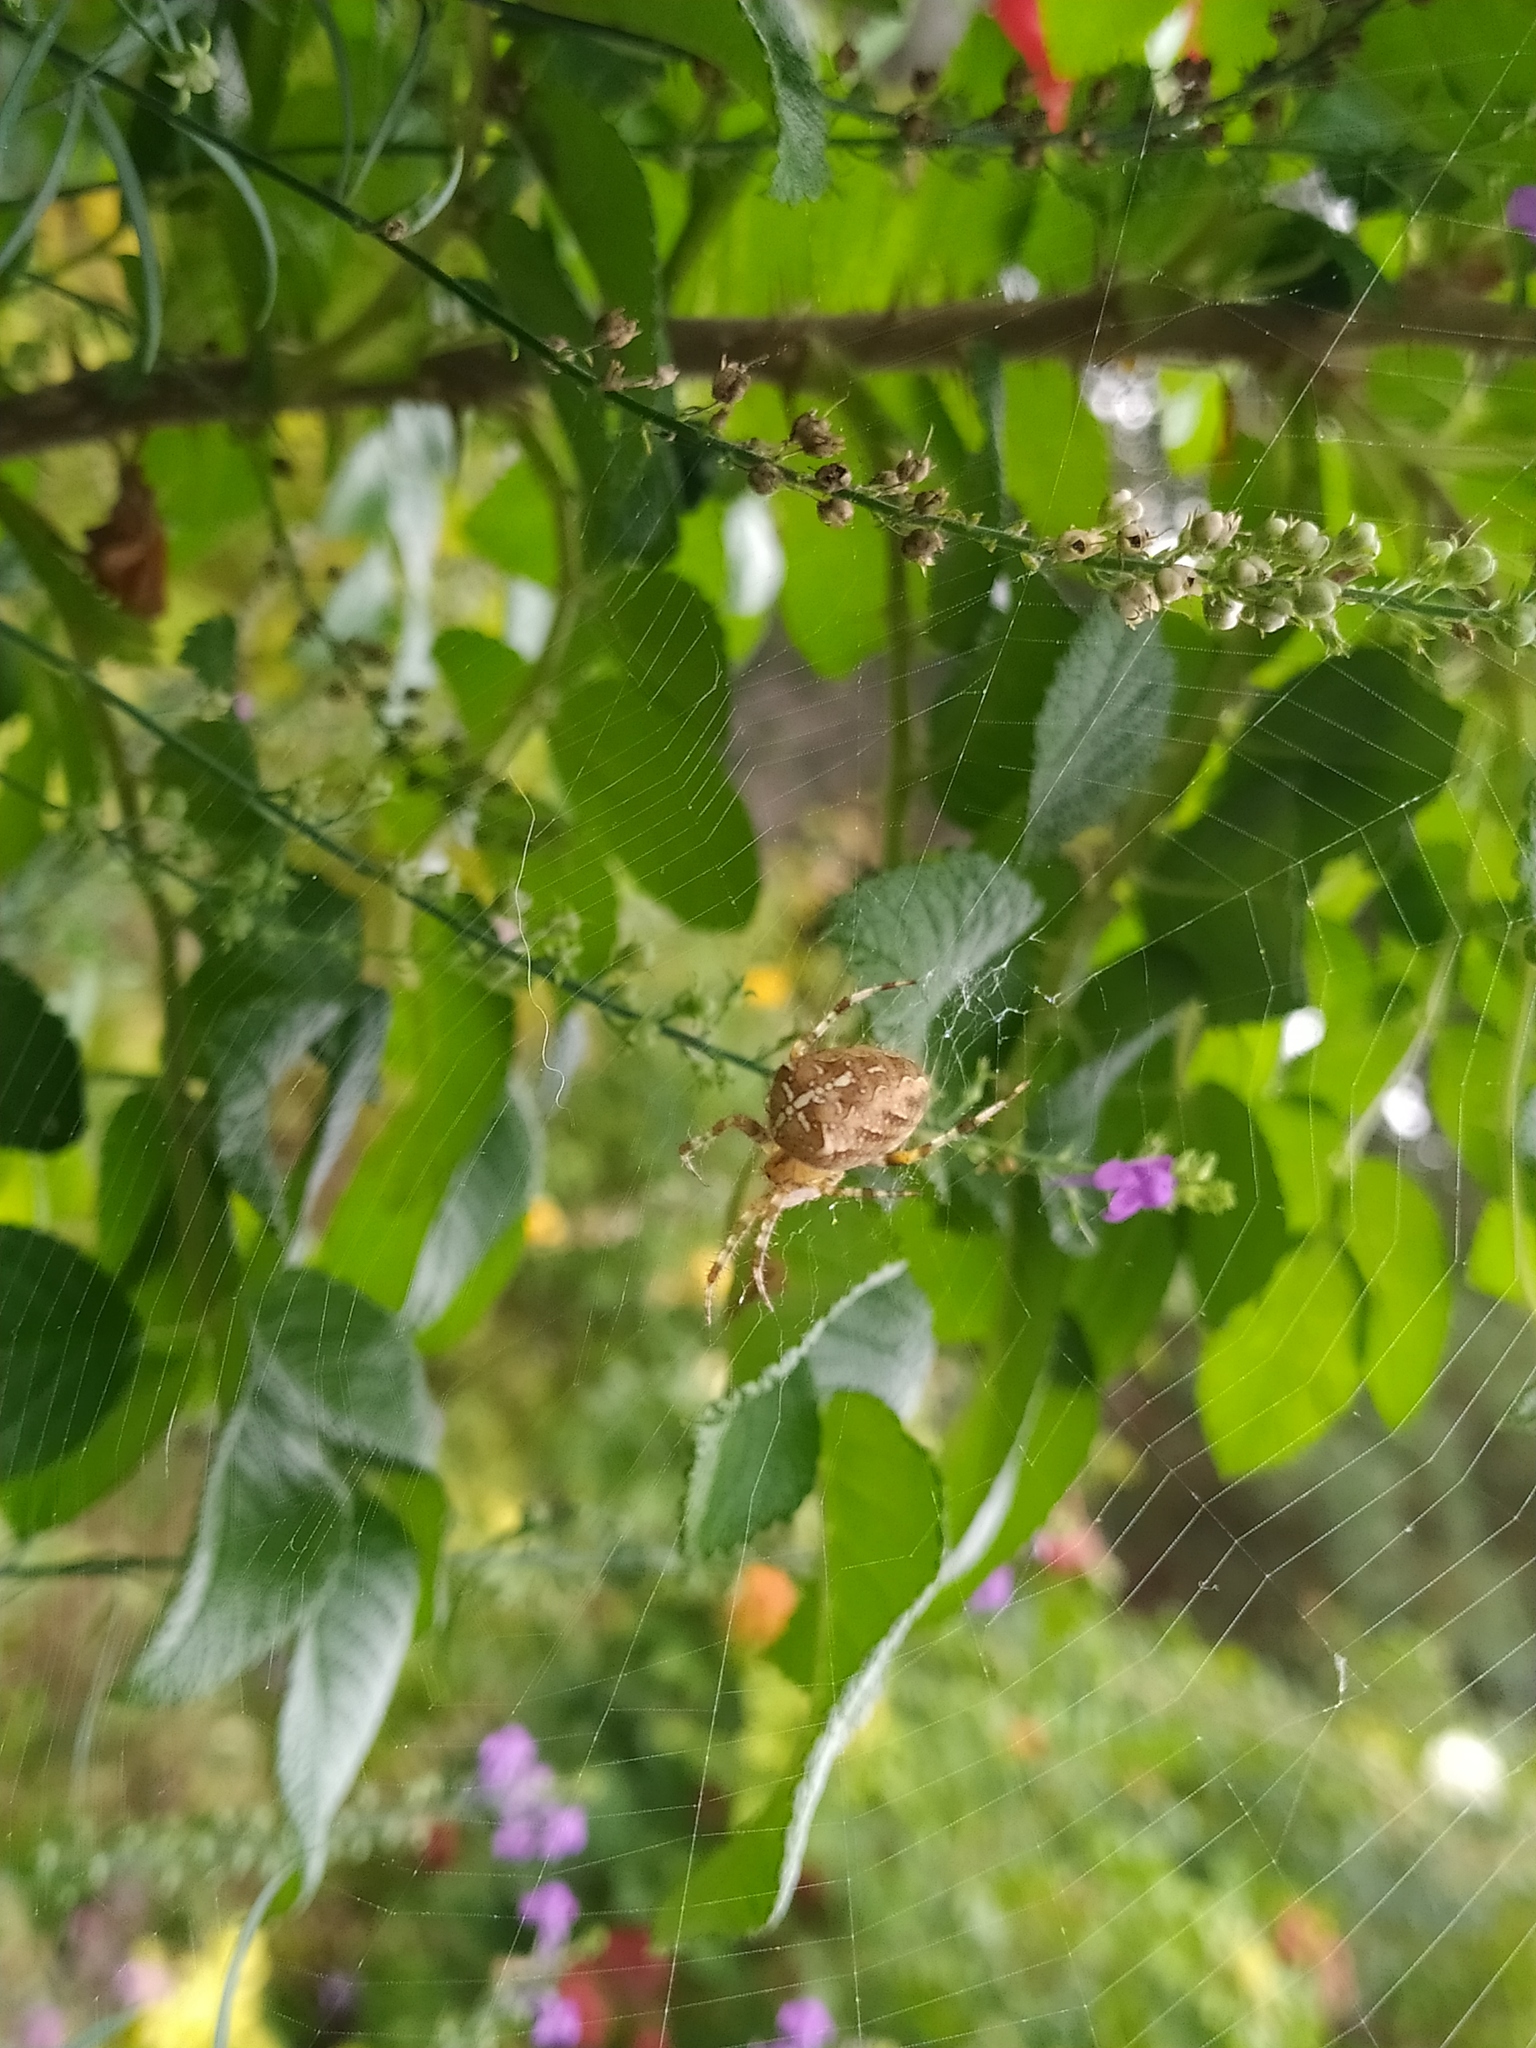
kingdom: Animalia
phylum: Arthropoda
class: Arachnida
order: Araneae
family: Araneidae
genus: Araneus
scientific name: Araneus diadematus
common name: Cross orbweaver
